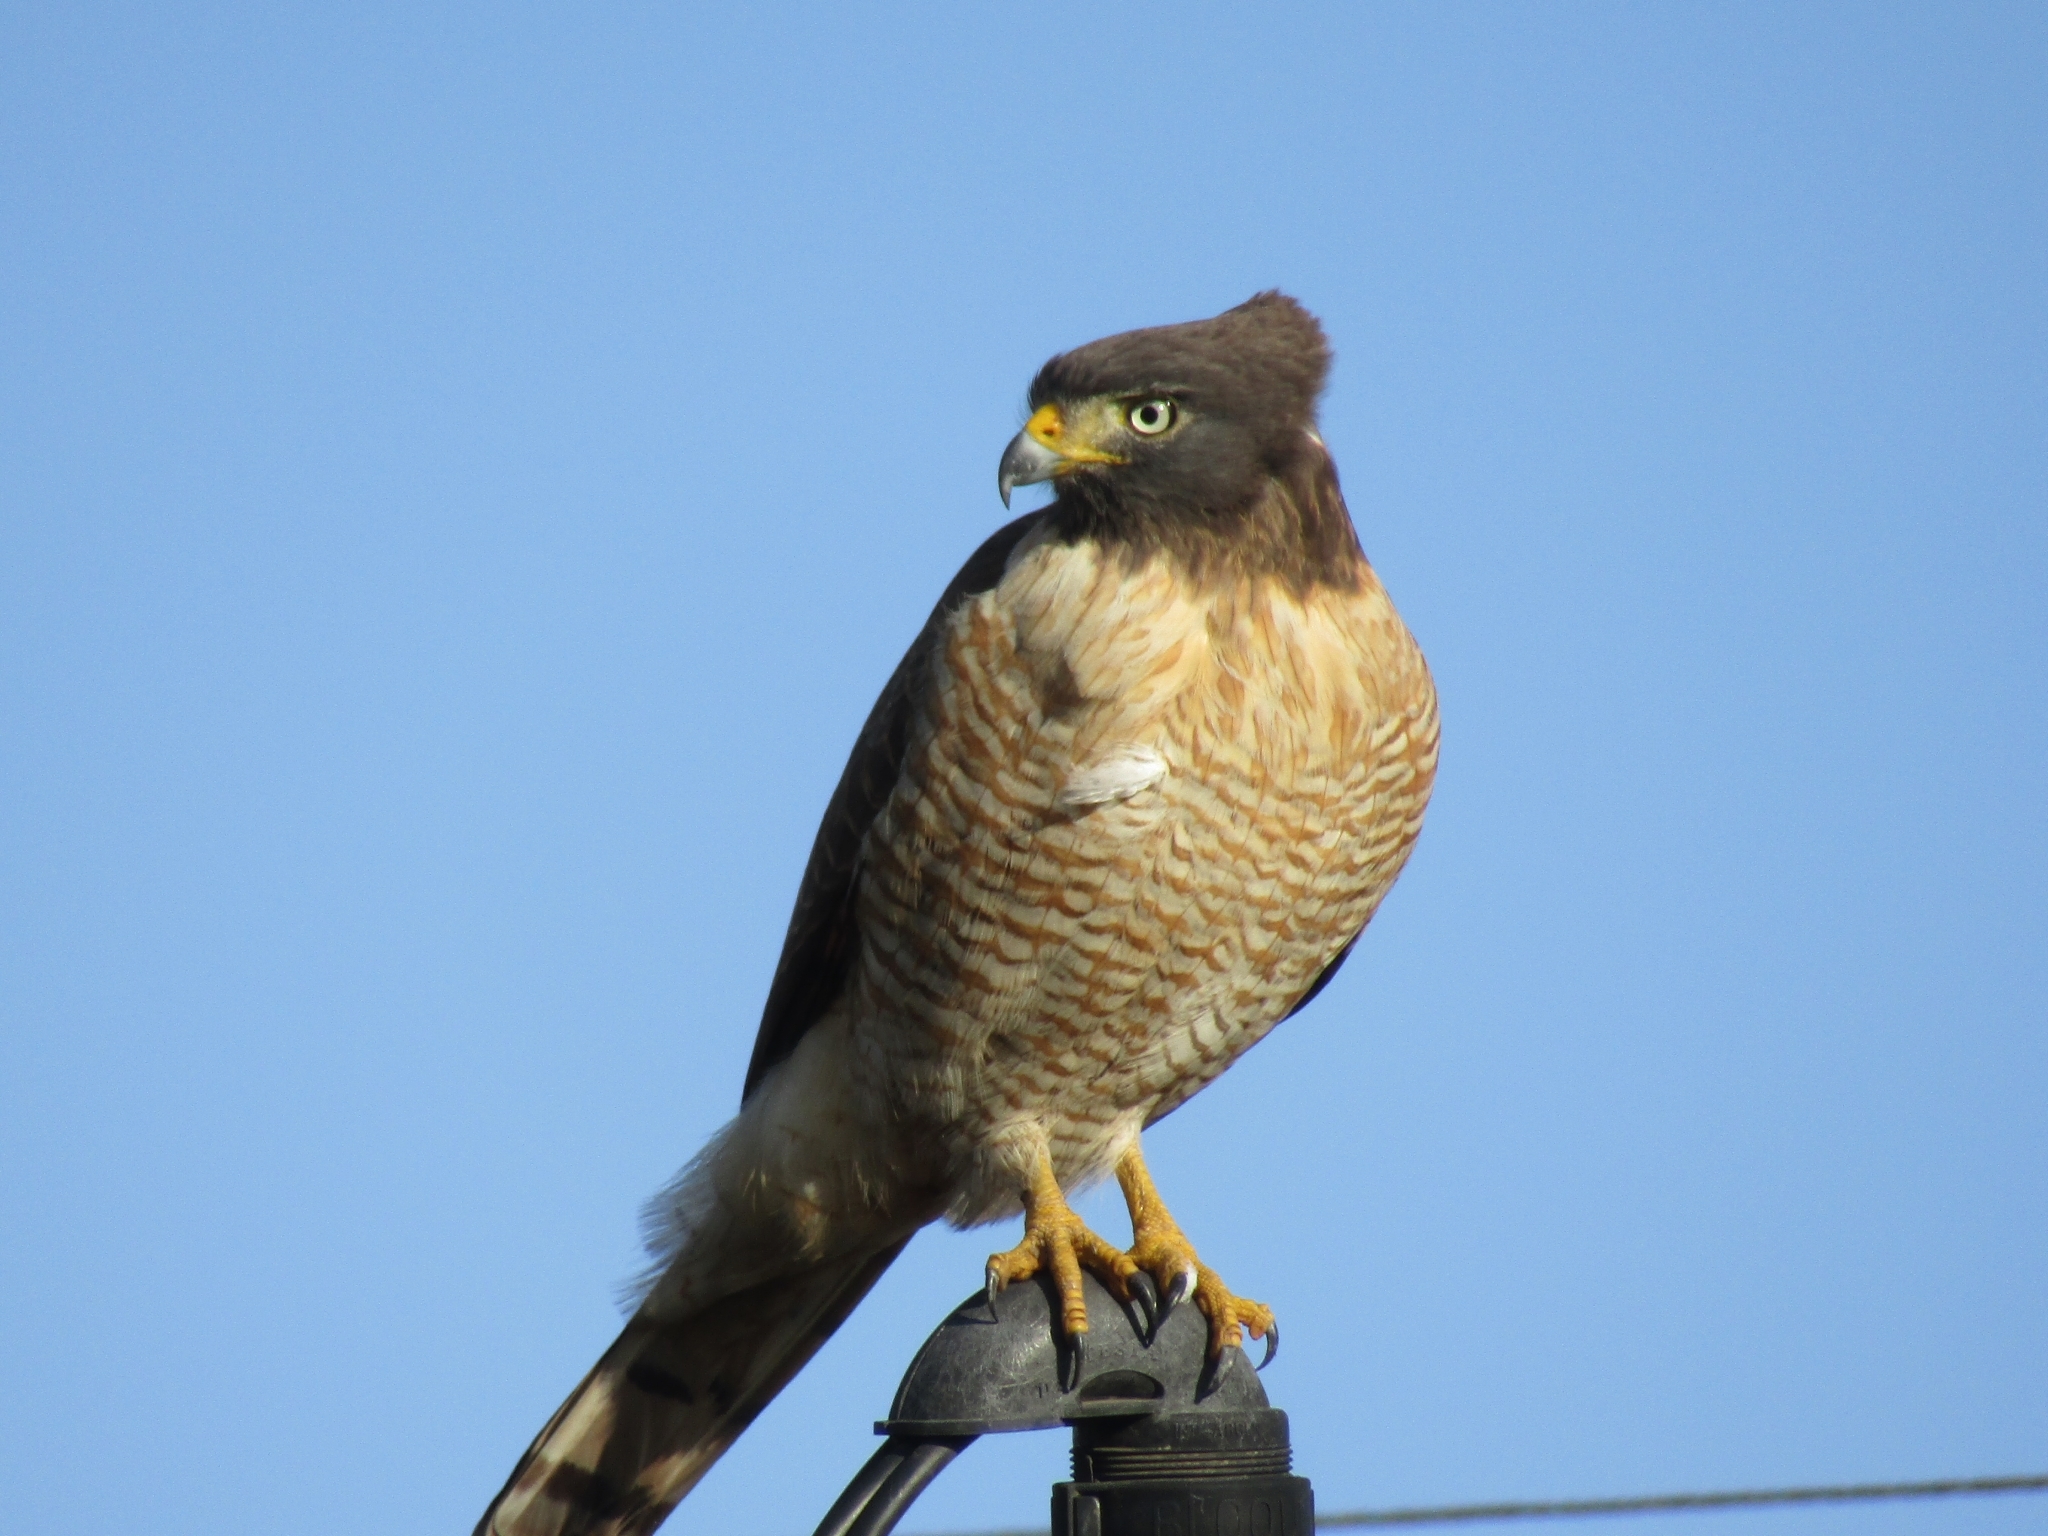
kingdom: Animalia
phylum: Chordata
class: Aves
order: Accipitriformes
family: Accipitridae
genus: Rupornis
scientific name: Rupornis magnirostris
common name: Roadside hawk
